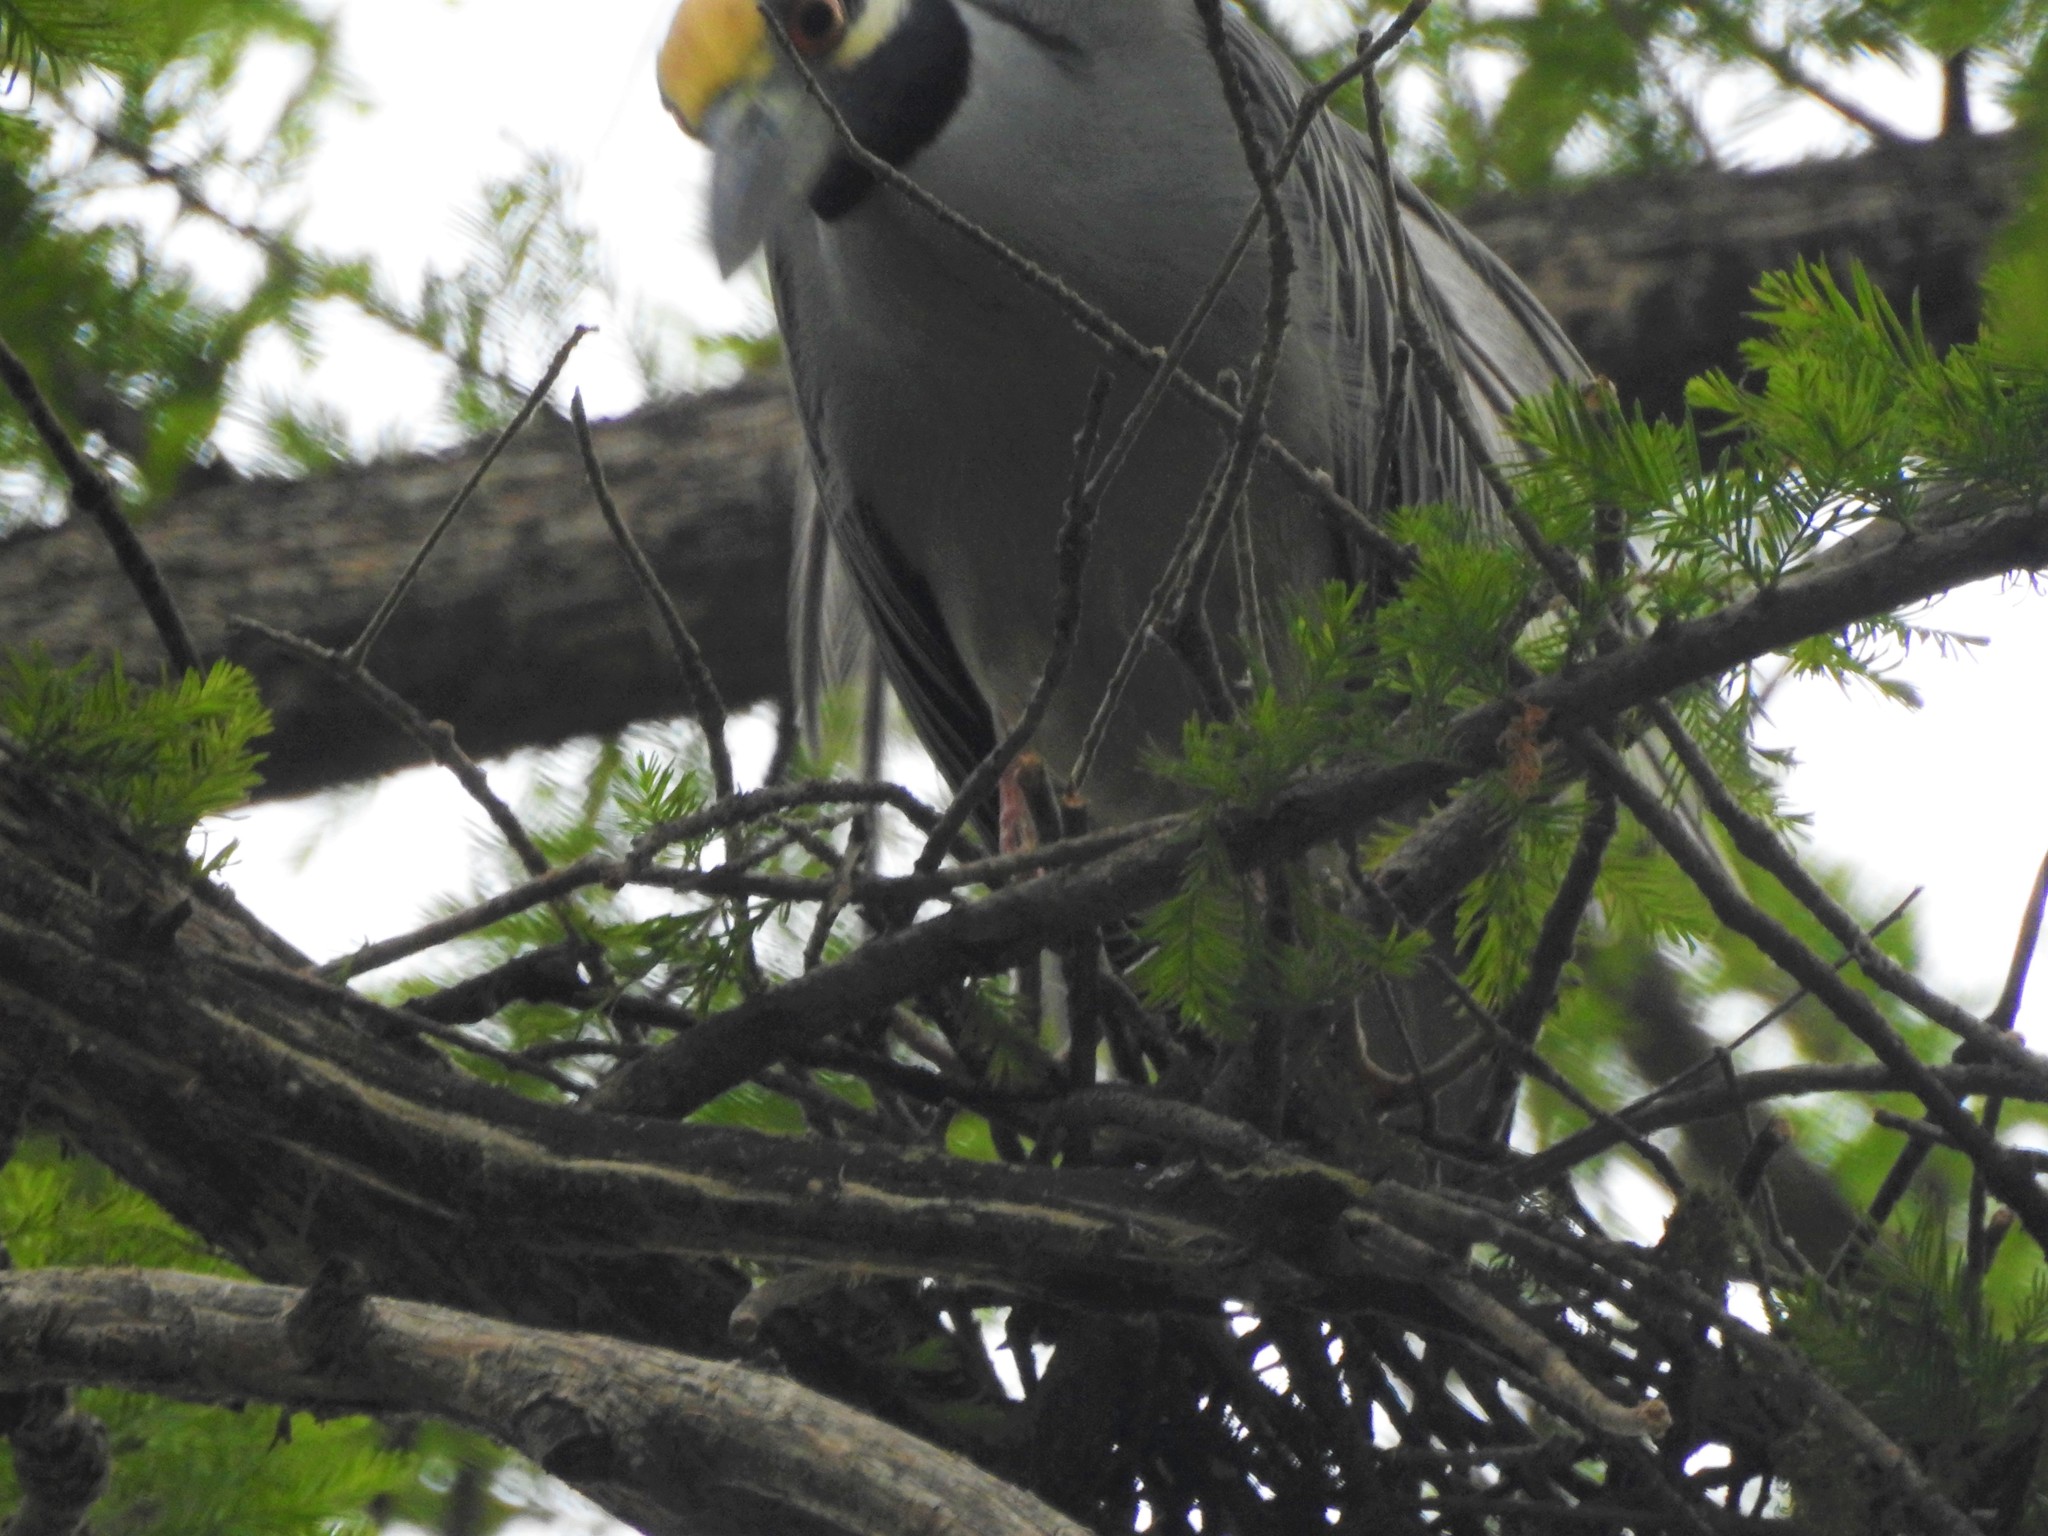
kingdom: Animalia
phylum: Chordata
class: Aves
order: Pelecaniformes
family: Ardeidae
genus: Nyctanassa
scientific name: Nyctanassa violacea
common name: Yellow-crowned night heron
